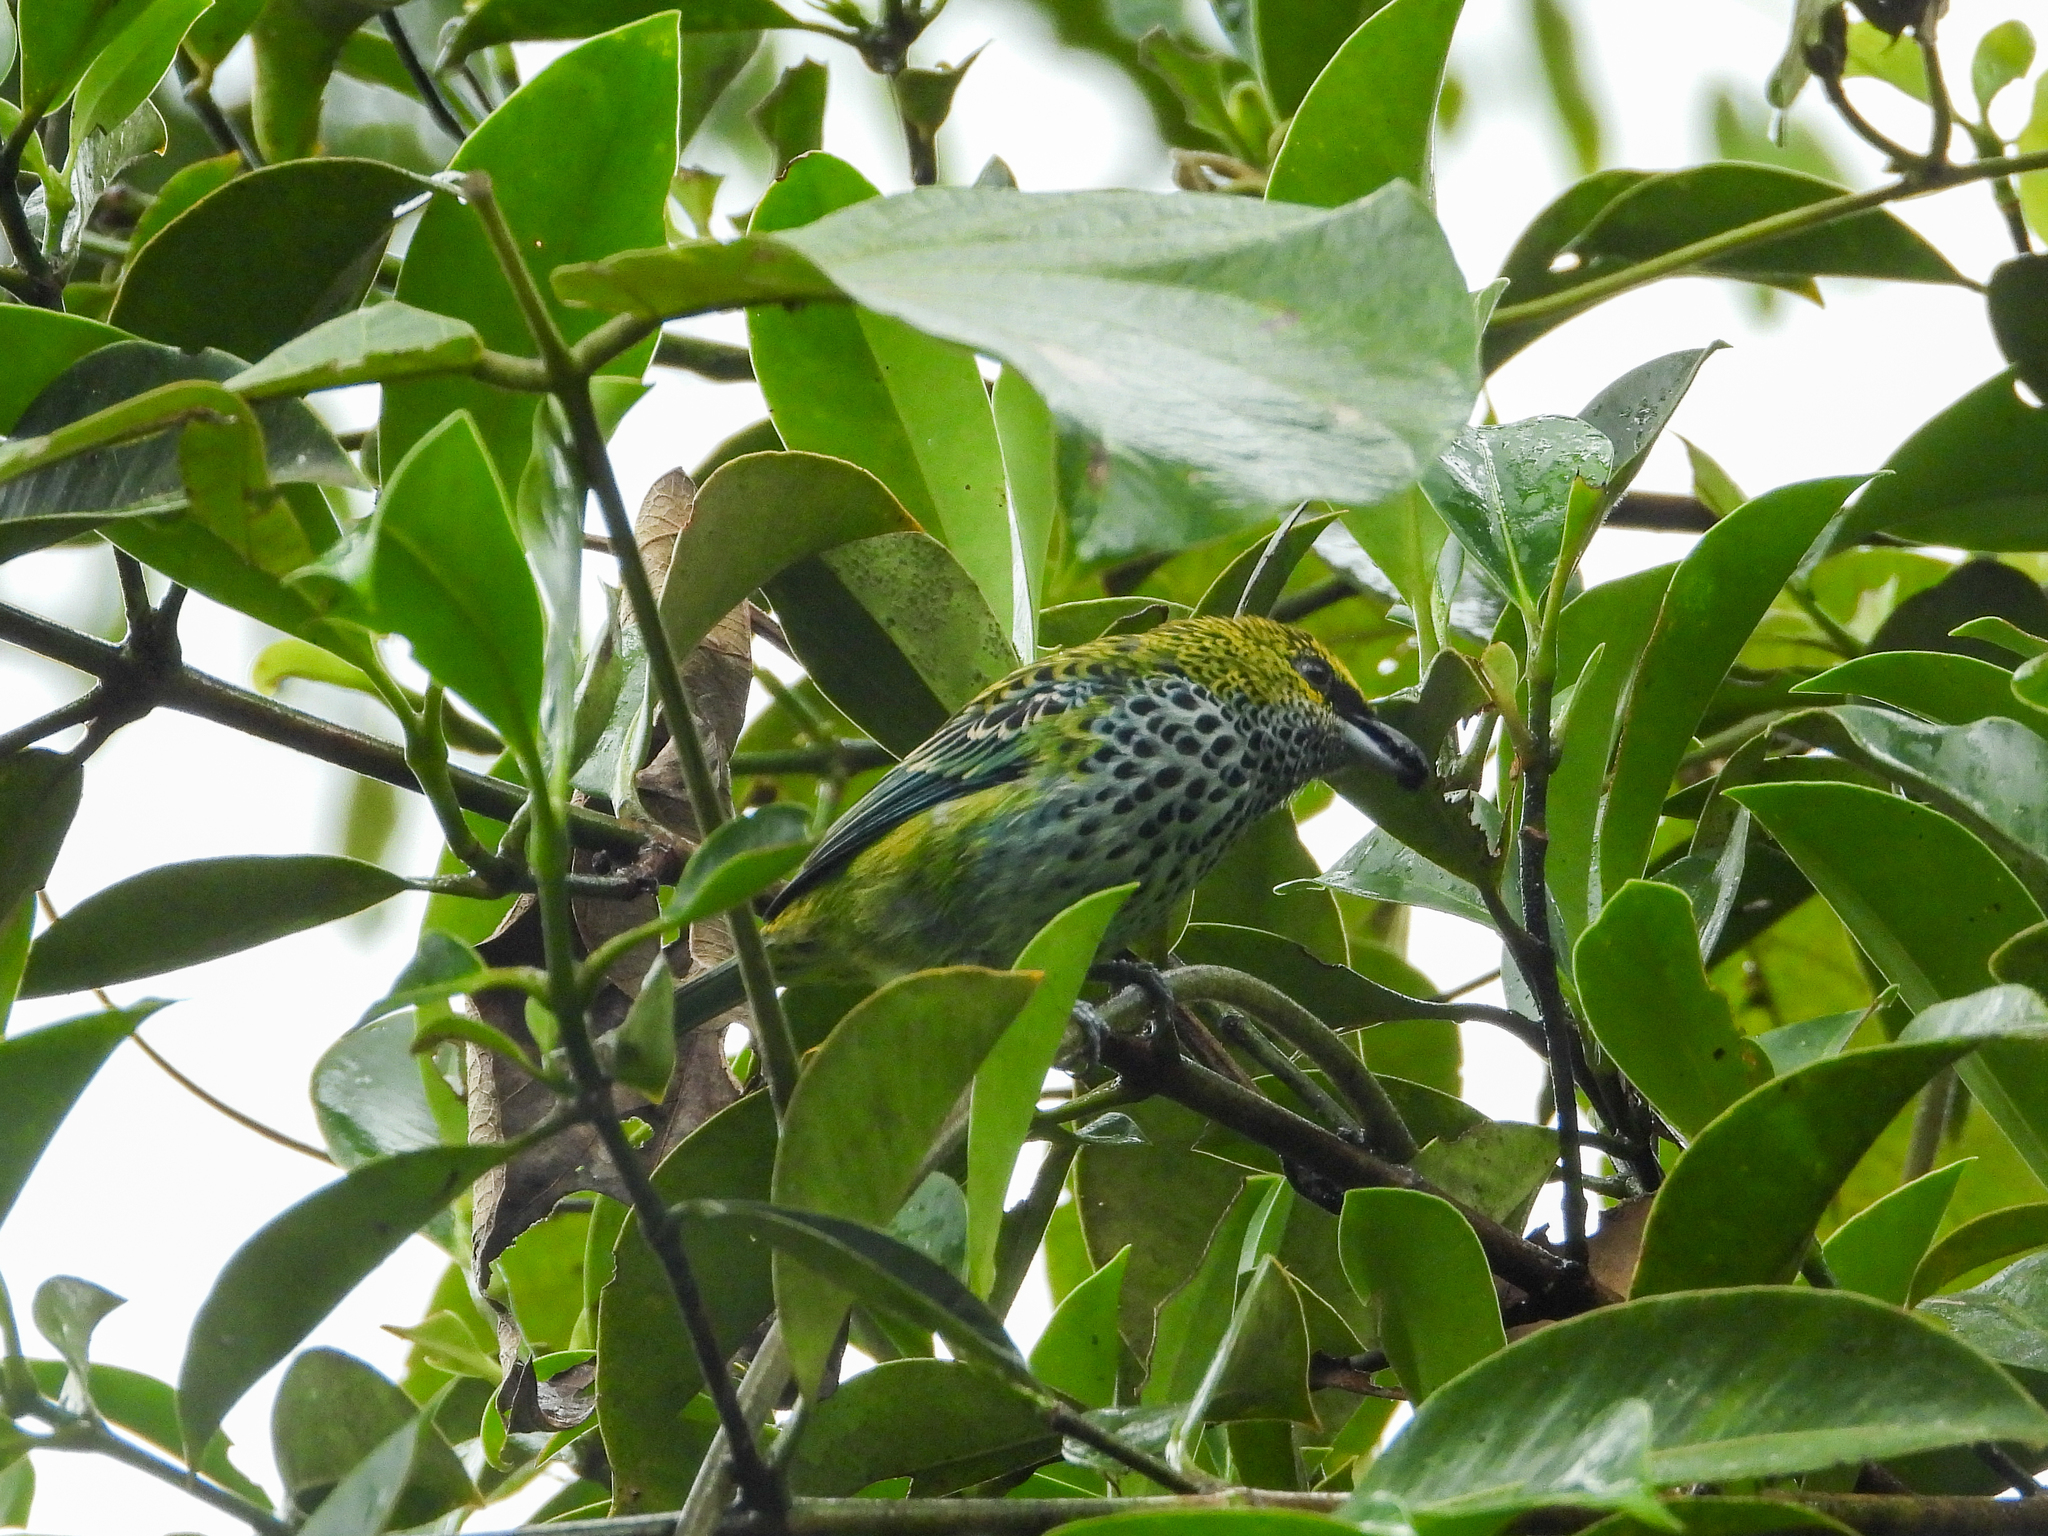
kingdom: Animalia
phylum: Chordata
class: Aves
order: Passeriformes
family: Thraupidae
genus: Ixothraupis
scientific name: Ixothraupis guttata
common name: Speckled tanager
